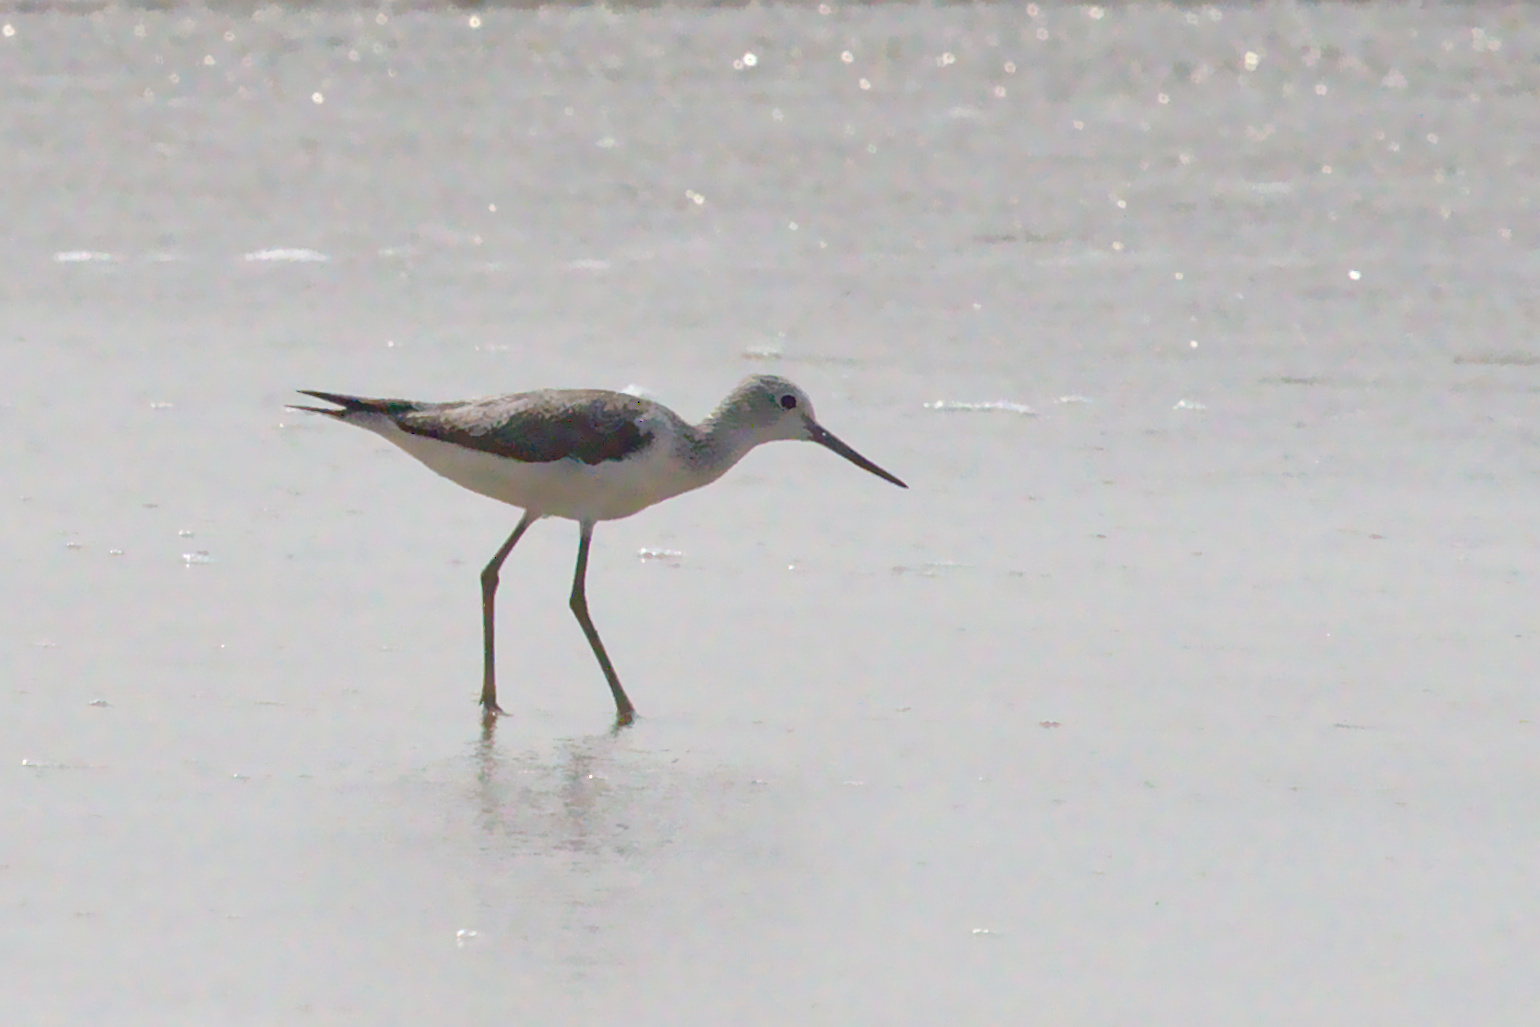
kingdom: Animalia
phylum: Chordata
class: Aves
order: Charadriiformes
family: Scolopacidae
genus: Tringa
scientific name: Tringa nebularia
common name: Common greenshank
